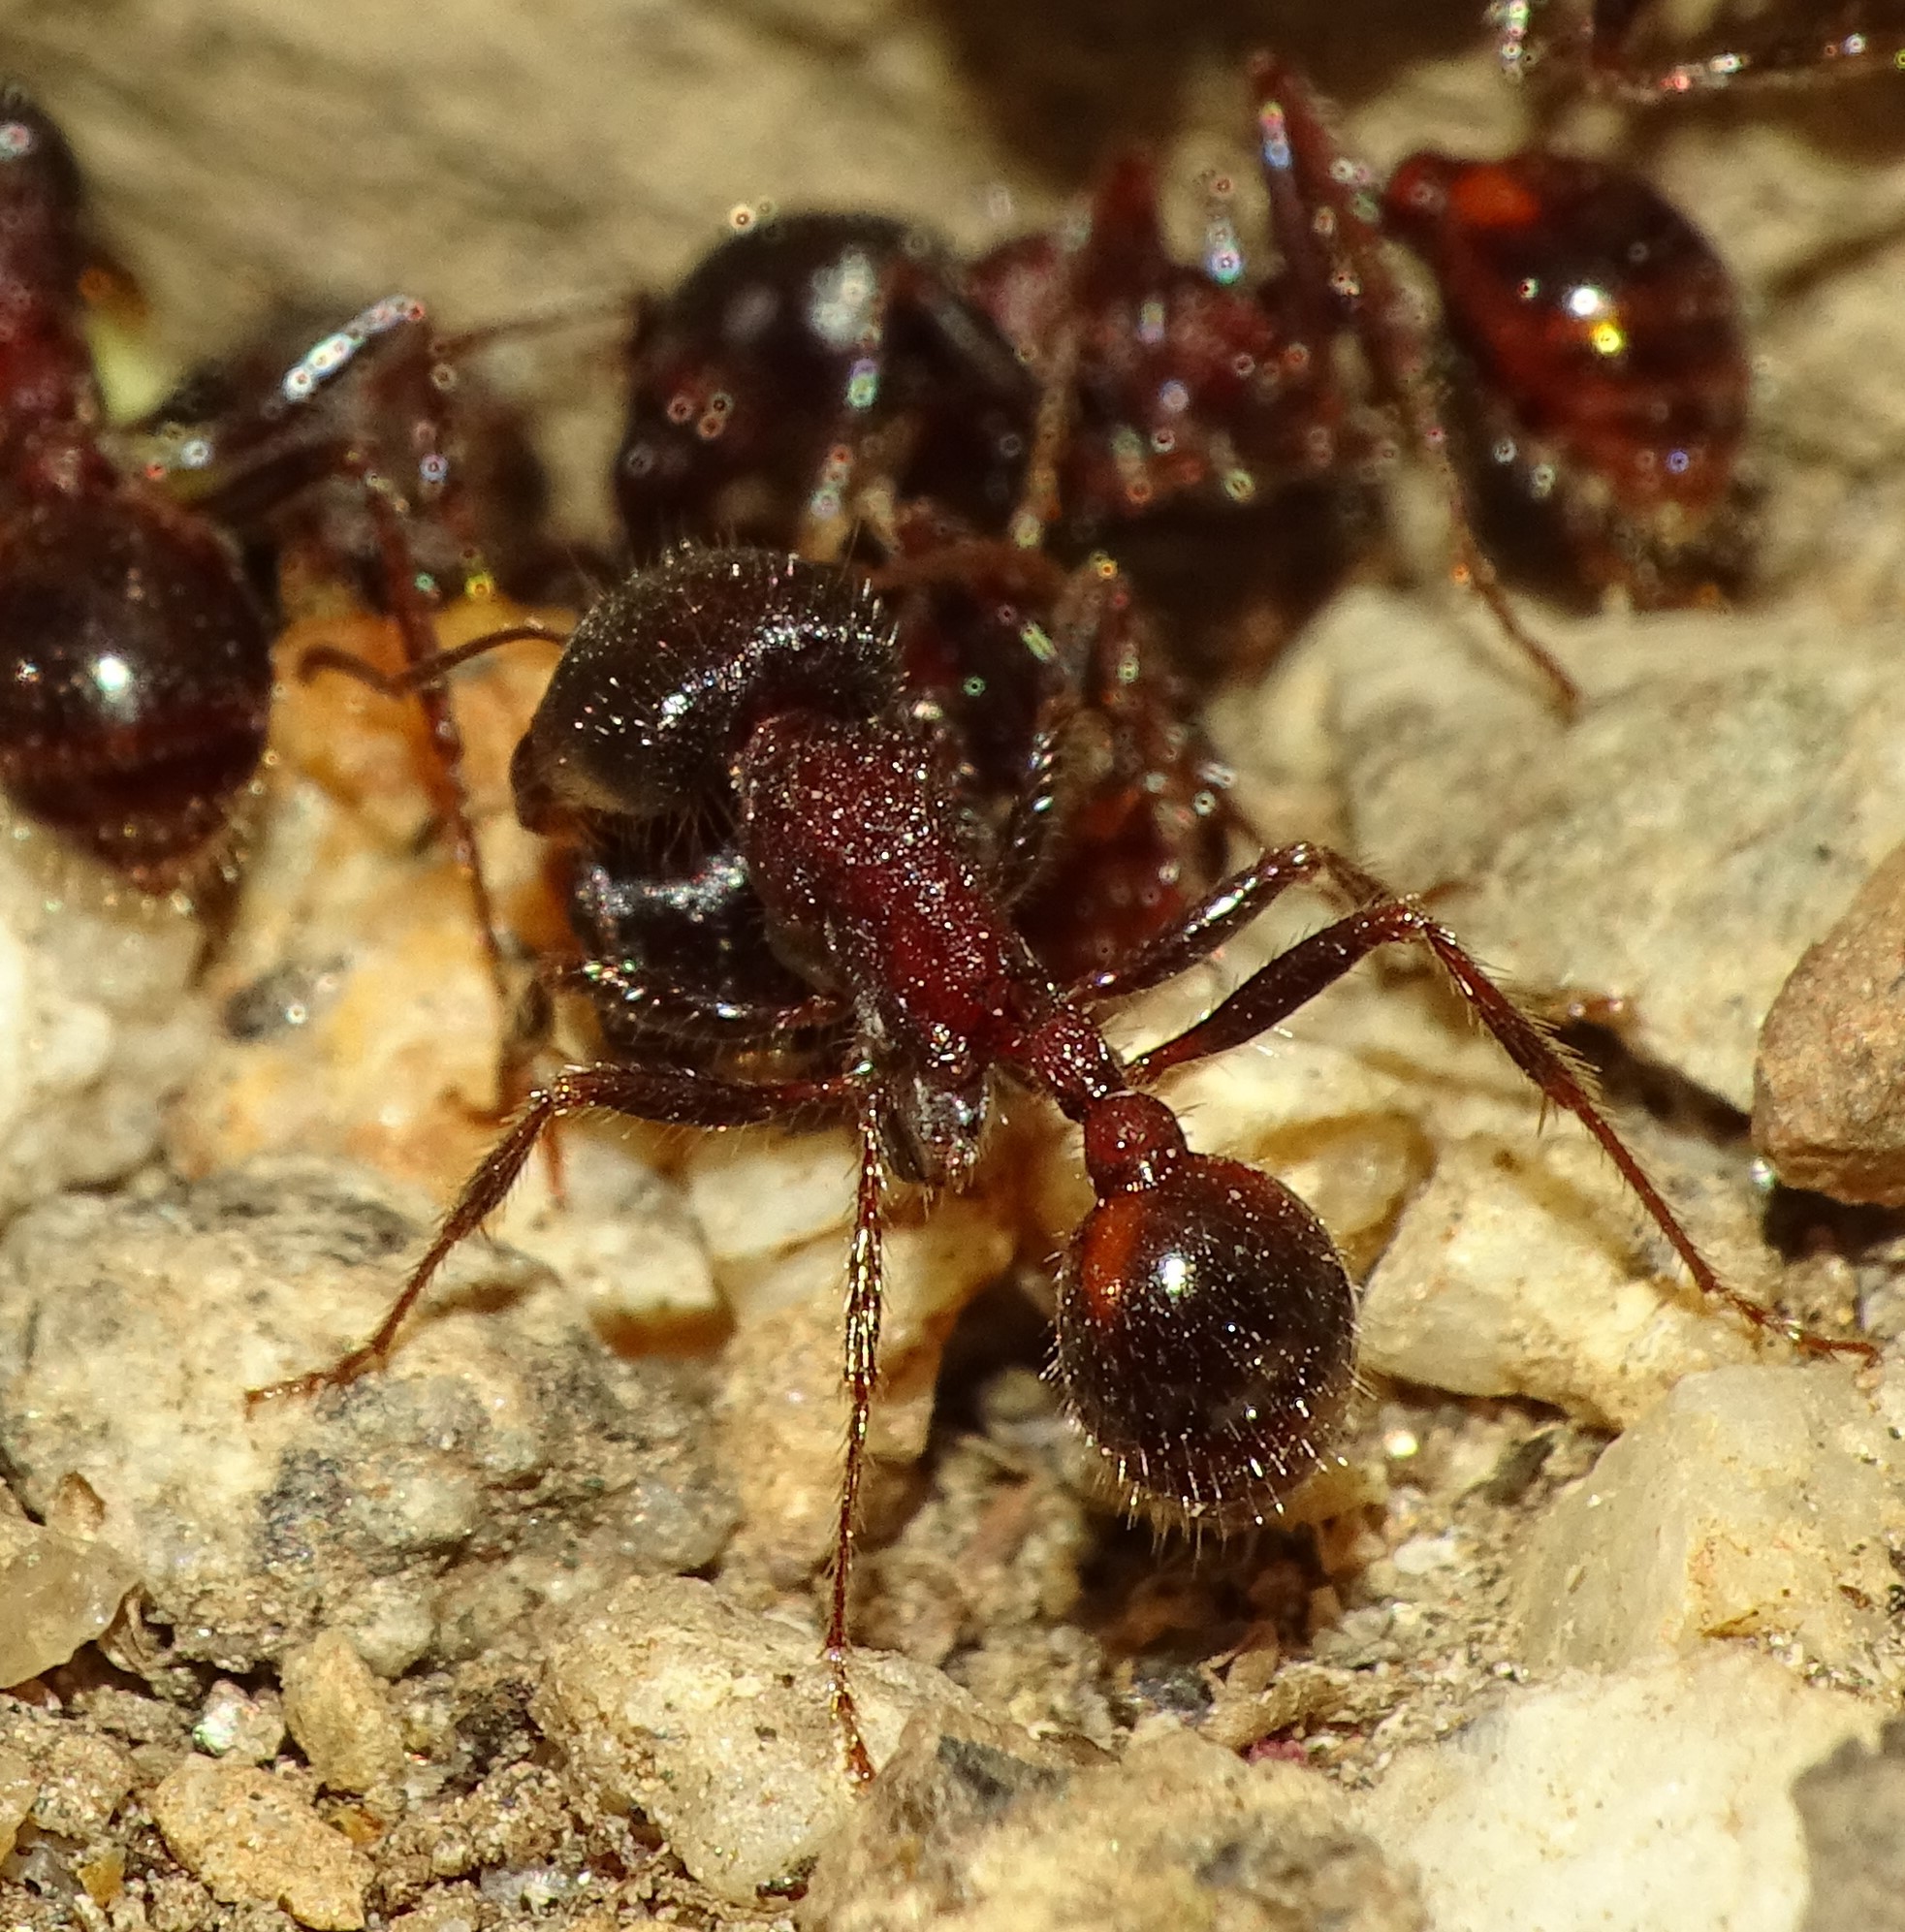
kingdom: Animalia
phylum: Arthropoda
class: Insecta
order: Hymenoptera
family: Formicidae
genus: Pogonomyrmex
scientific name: Pogonomyrmex rugosus
